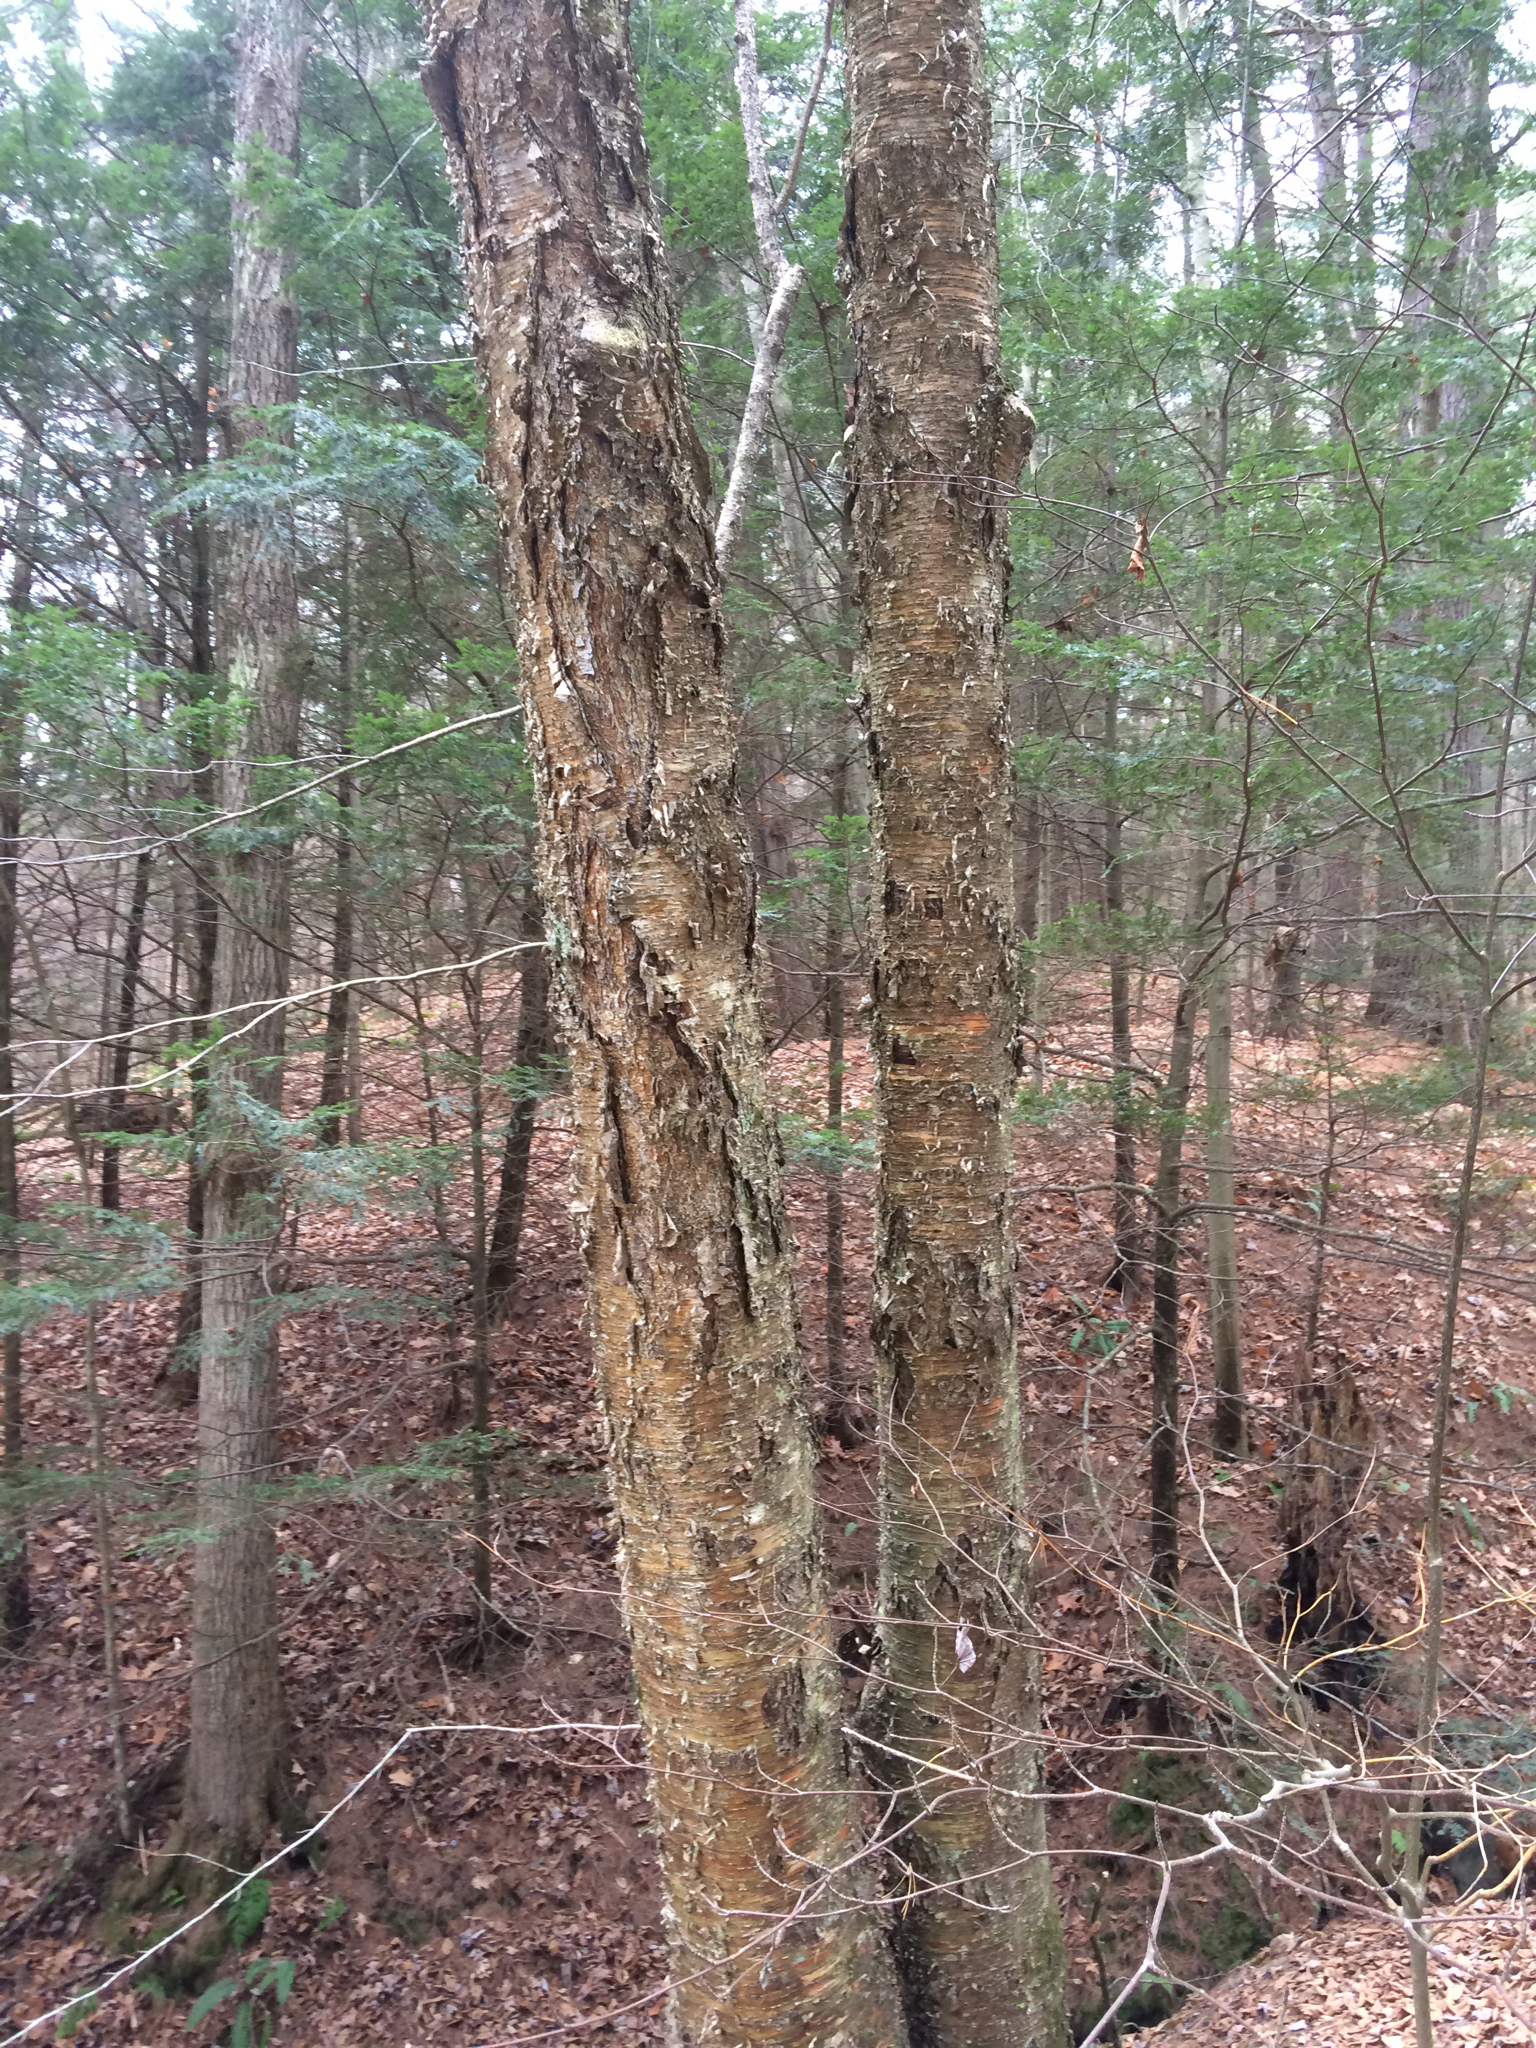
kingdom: Plantae
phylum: Tracheophyta
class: Magnoliopsida
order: Fagales
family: Betulaceae
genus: Betula
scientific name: Betula alleghaniensis
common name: Yellow birch
